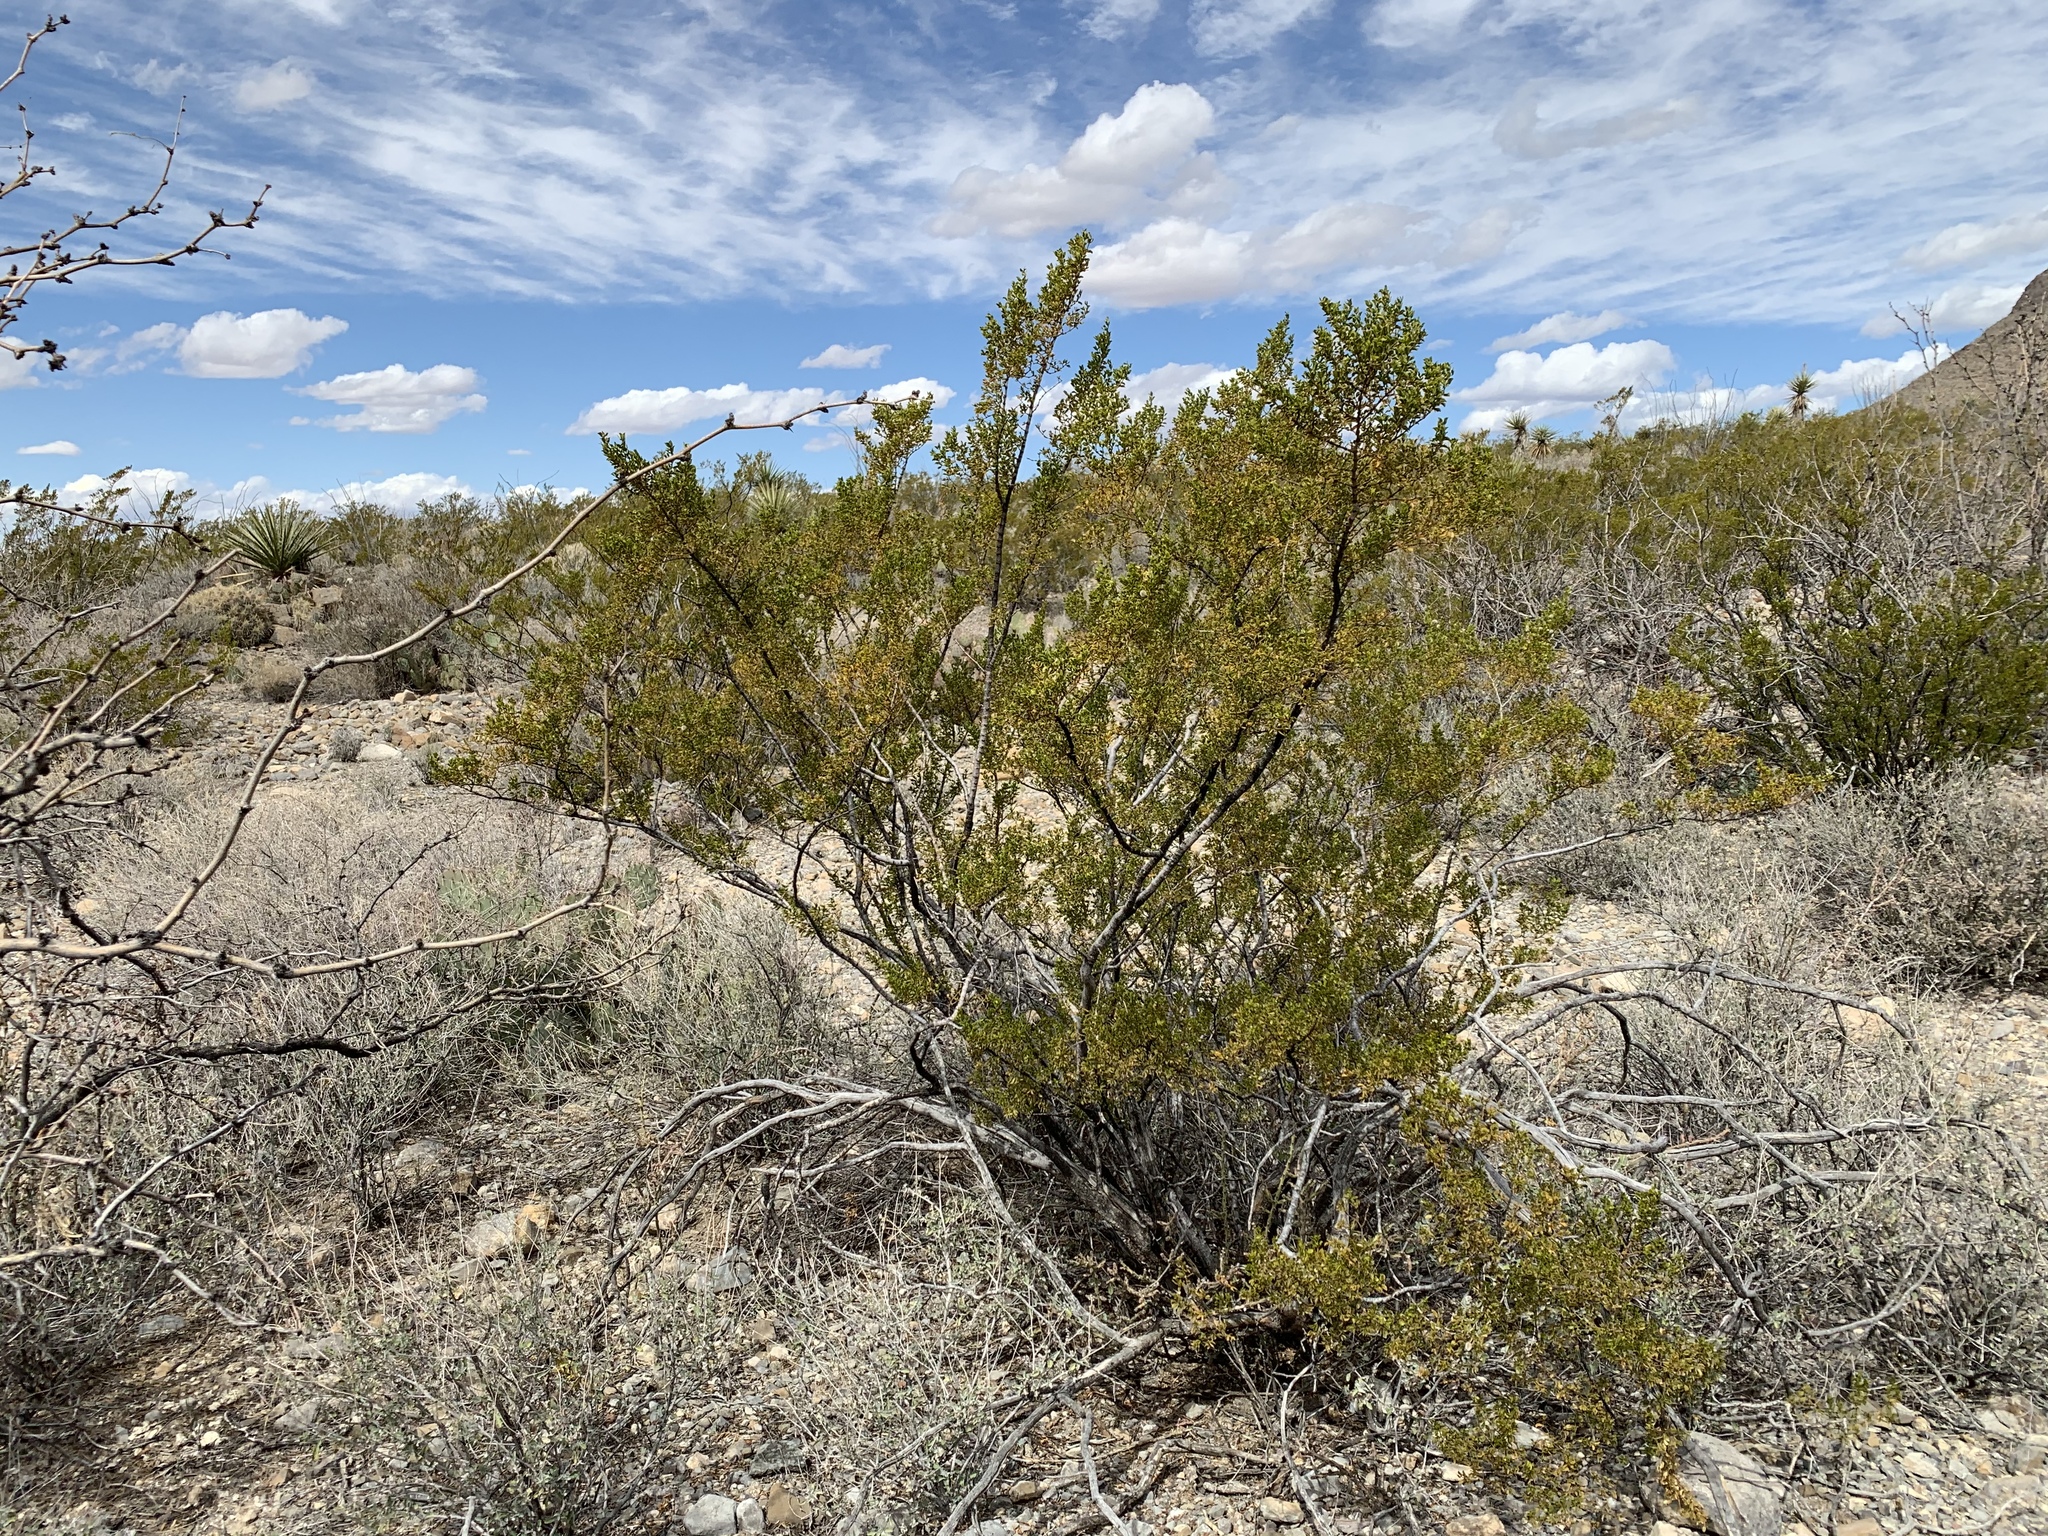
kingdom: Plantae
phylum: Tracheophyta
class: Magnoliopsida
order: Zygophyllales
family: Zygophyllaceae
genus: Larrea
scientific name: Larrea tridentata
